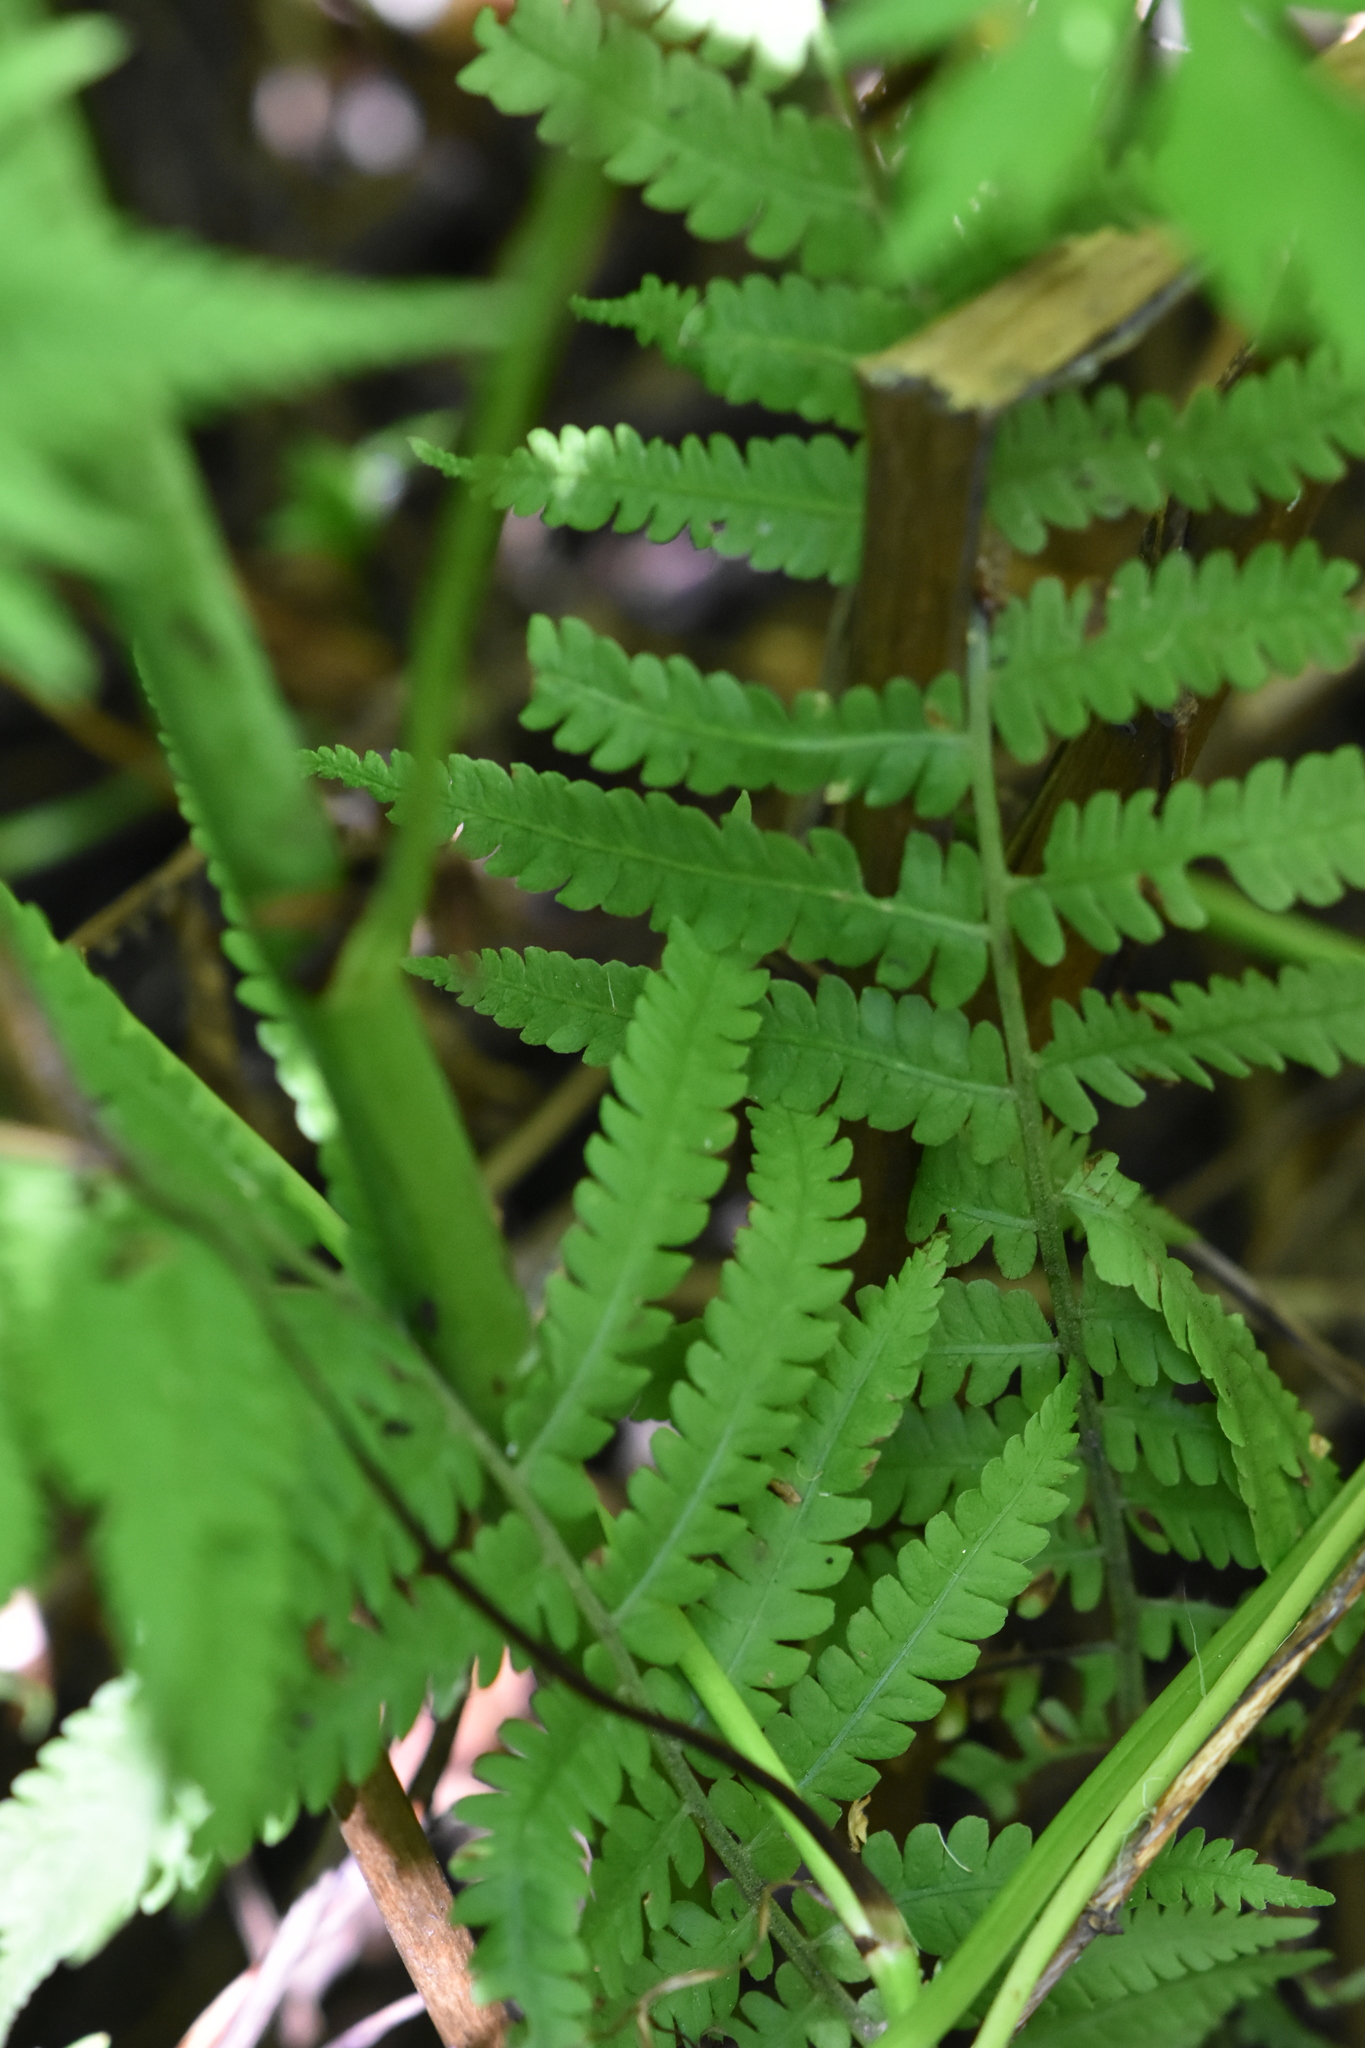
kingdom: Plantae
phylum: Tracheophyta
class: Polypodiopsida
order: Polypodiales
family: Onocleaceae
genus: Matteuccia
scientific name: Matteuccia struthiopteris
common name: Ostrich fern
